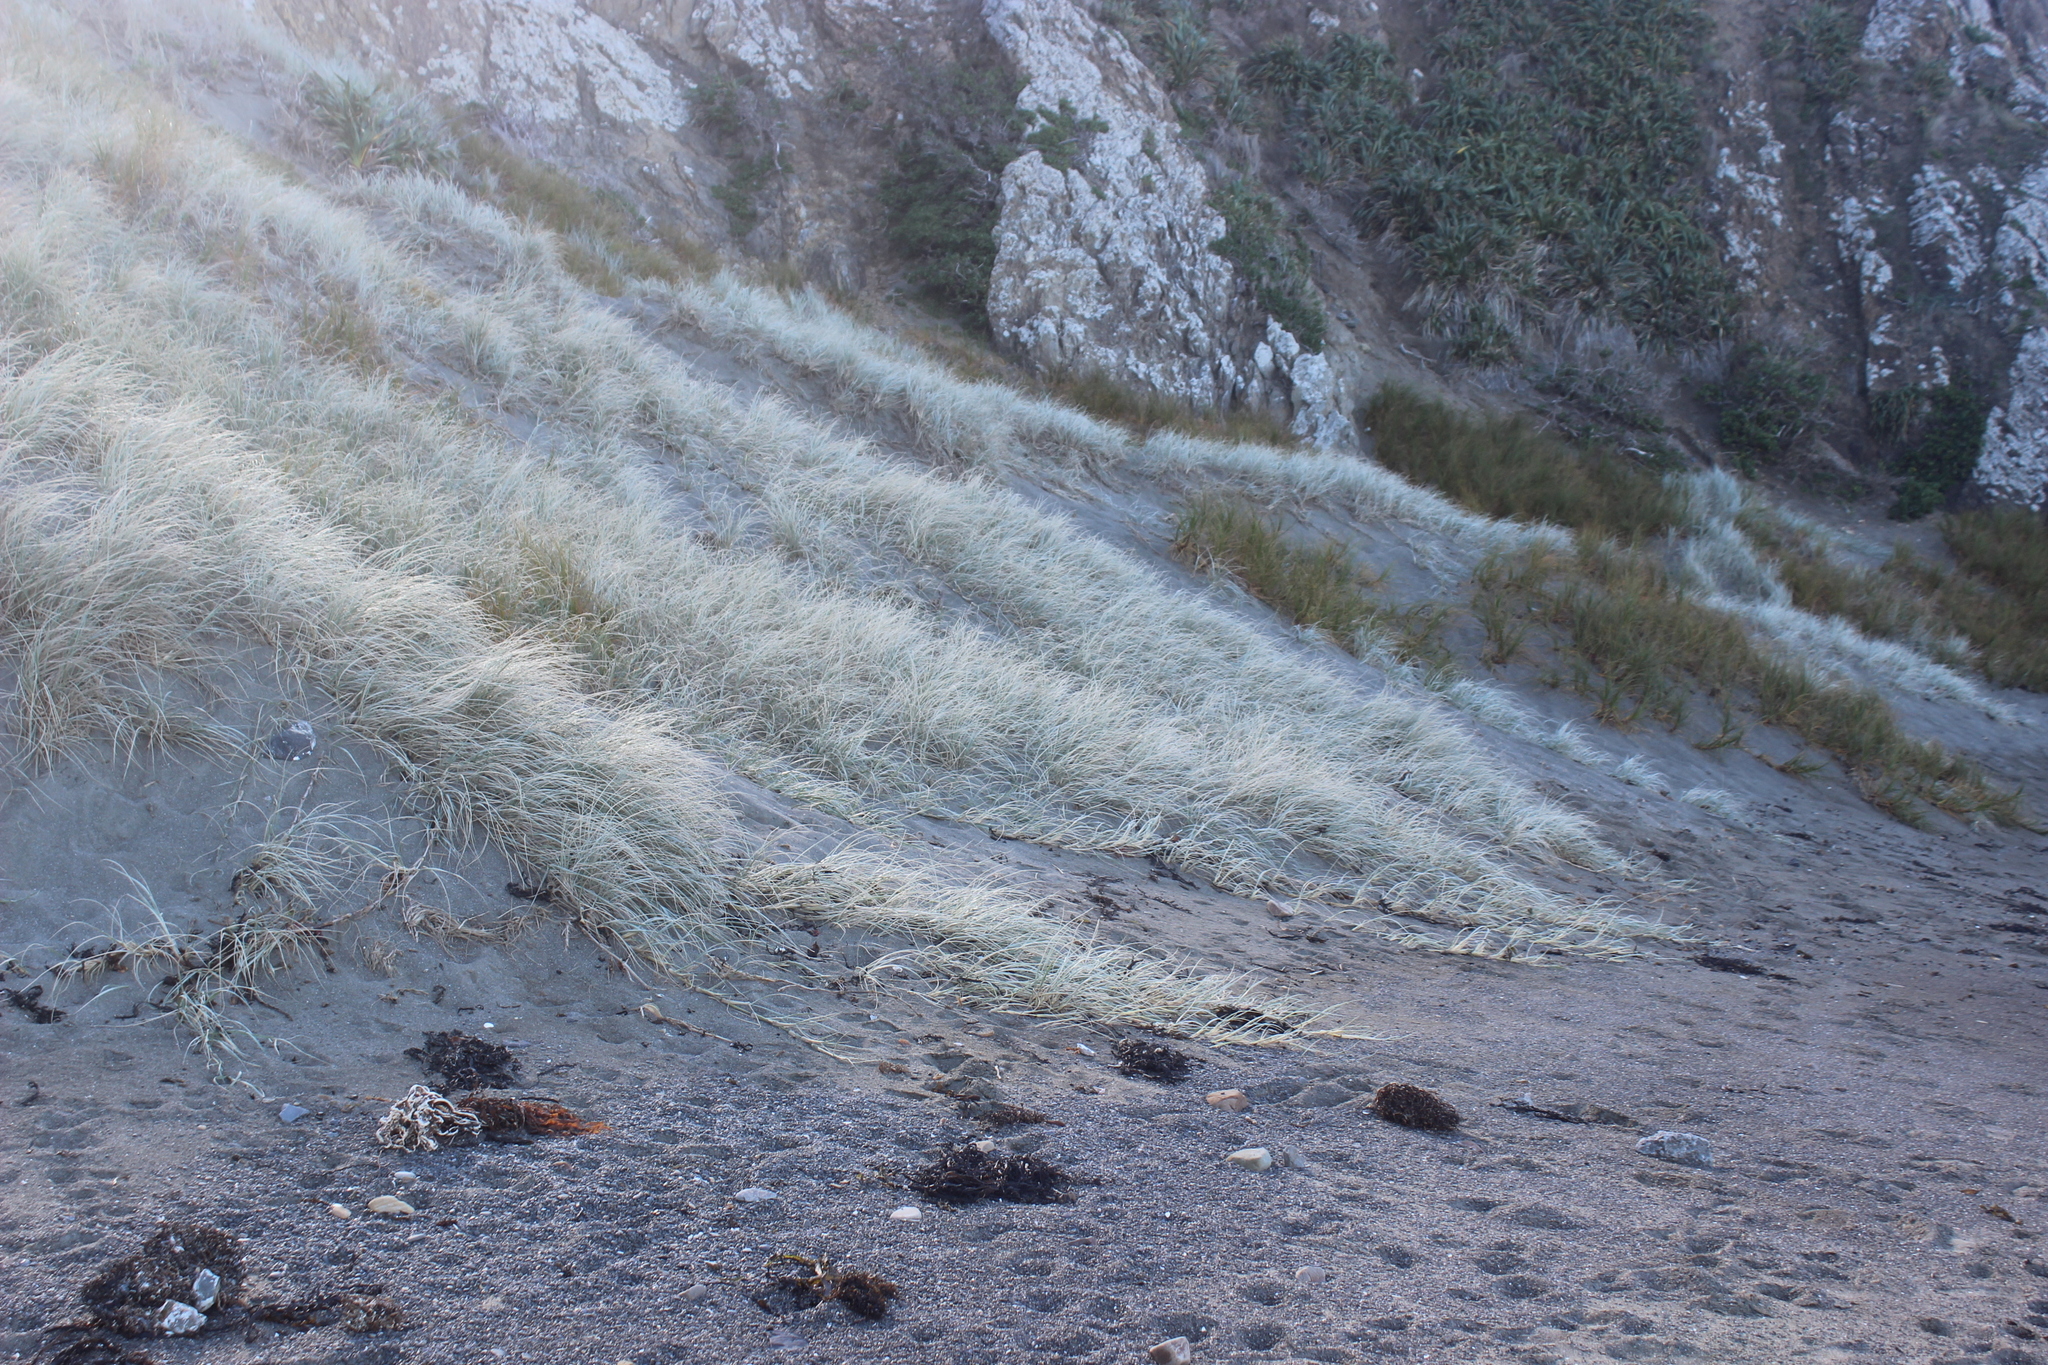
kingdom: Plantae
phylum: Tracheophyta
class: Liliopsida
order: Poales
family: Poaceae
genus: Spinifex
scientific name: Spinifex sericeus
